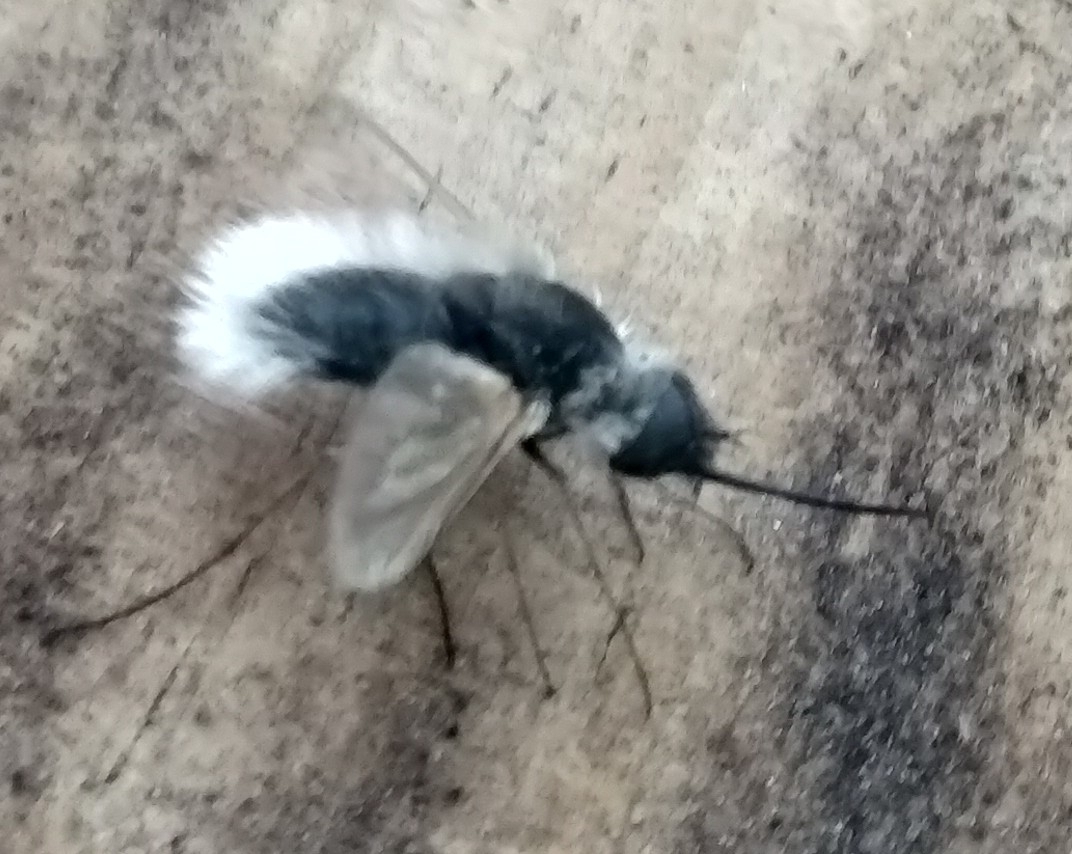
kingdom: Animalia
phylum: Arthropoda
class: Insecta
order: Diptera
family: Bombyliidae
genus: Systoechus
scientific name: Systoechus candidulus
